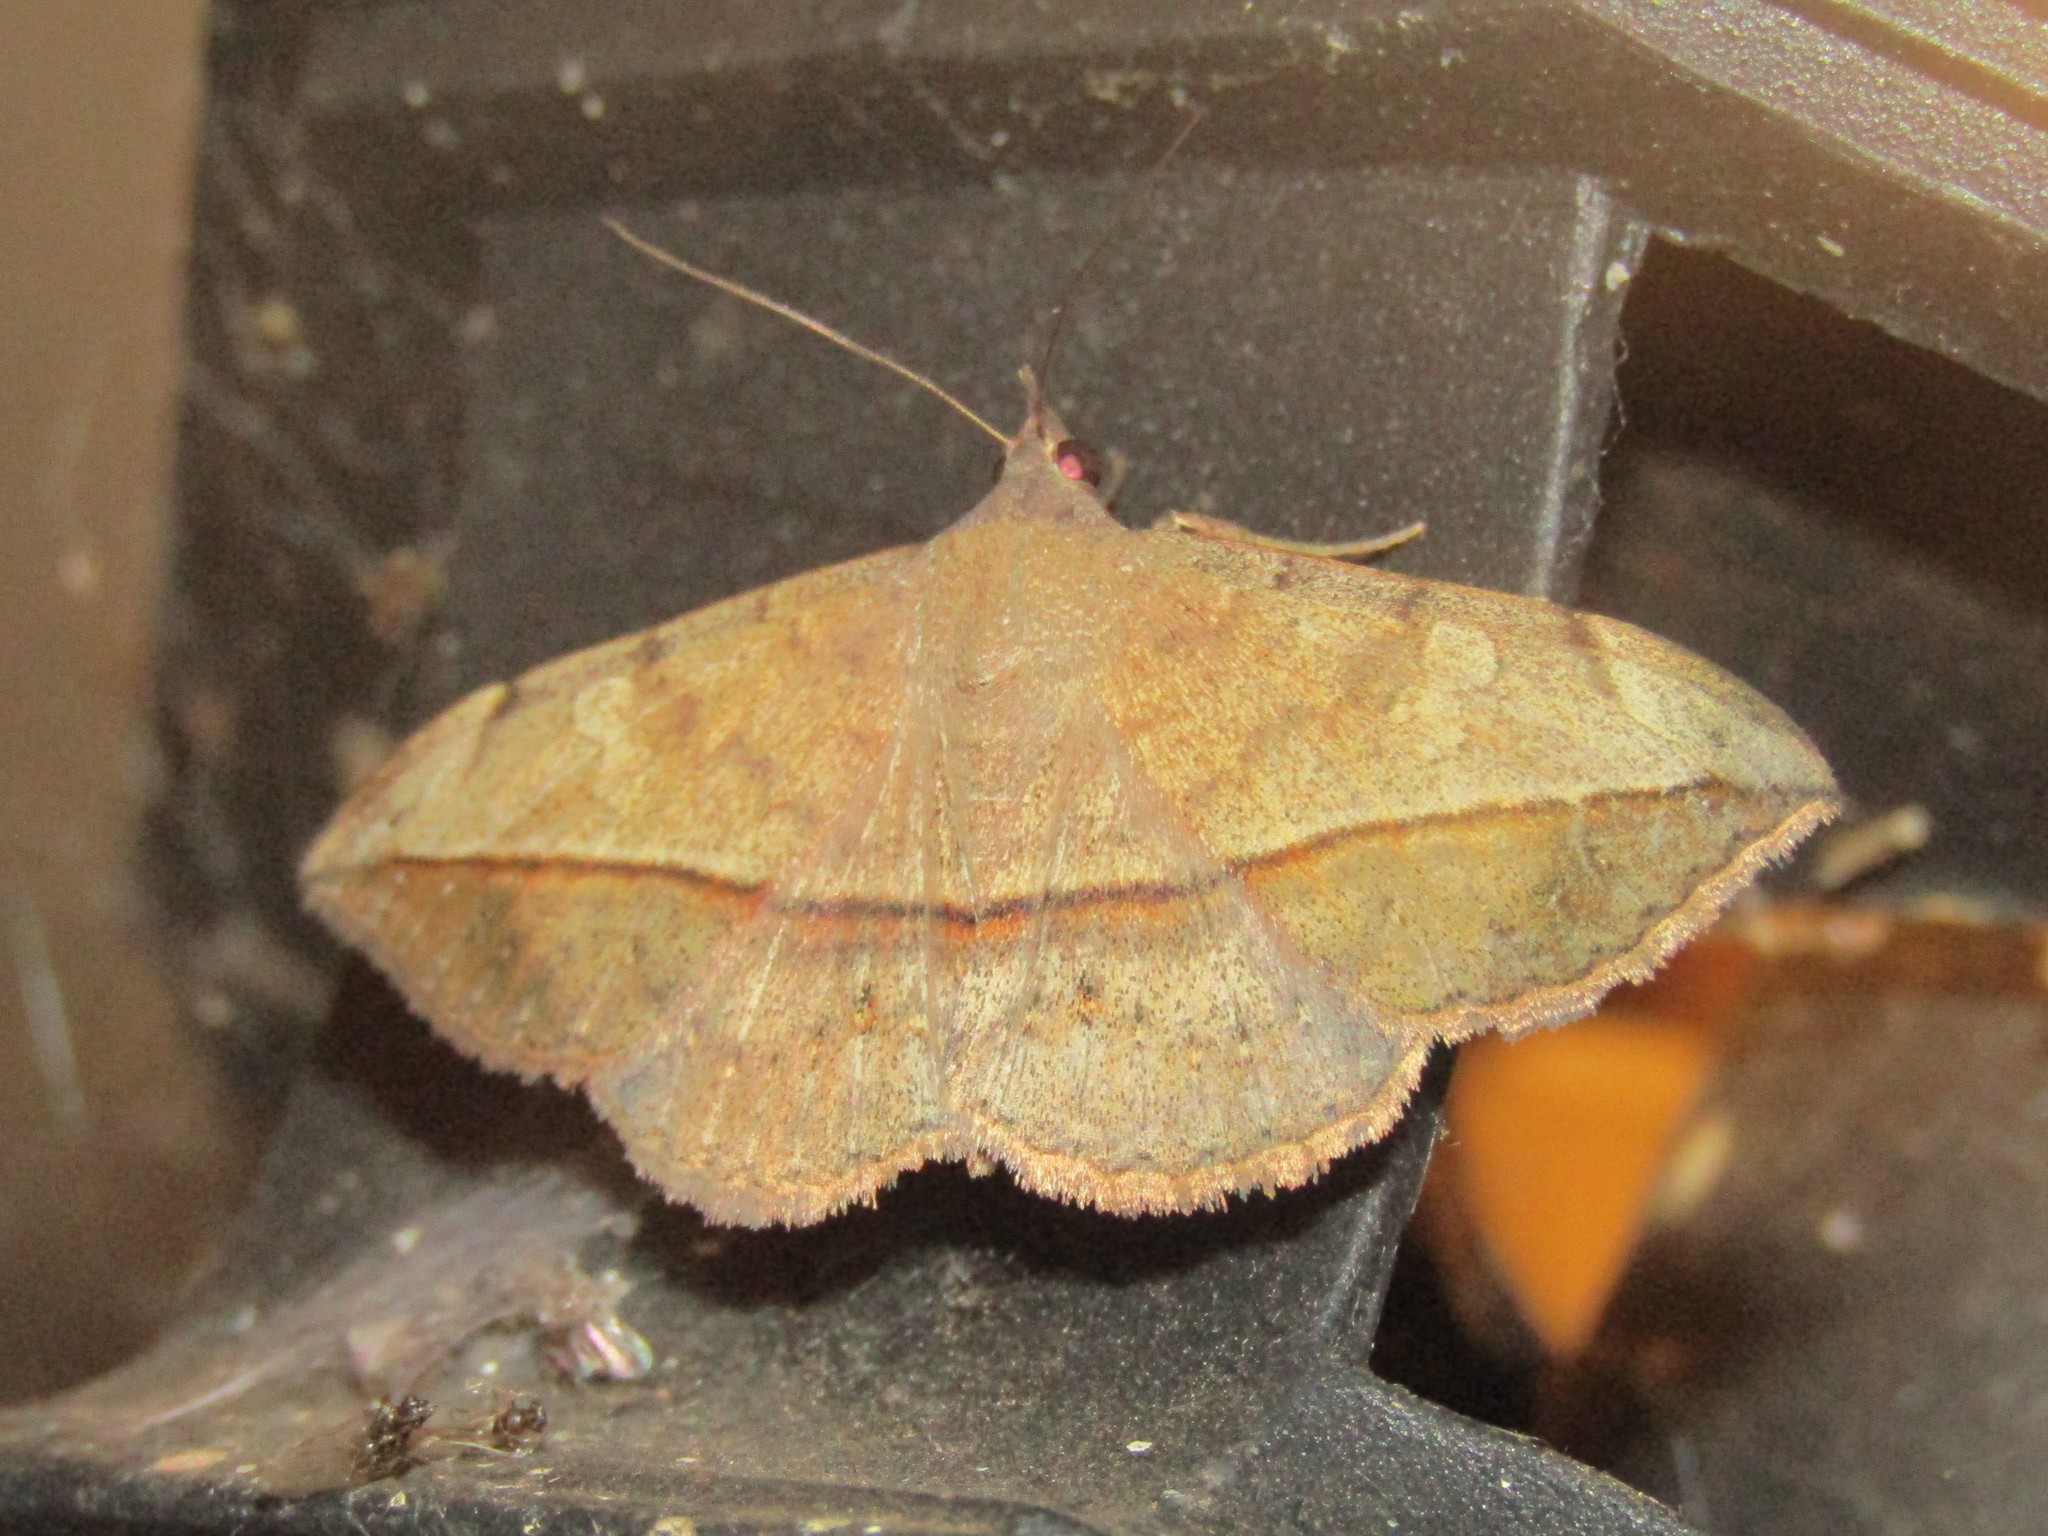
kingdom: Animalia
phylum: Arthropoda
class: Insecta
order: Lepidoptera
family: Erebidae
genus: Anticarsia
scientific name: Anticarsia gemmatalis
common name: Cutworm moth
